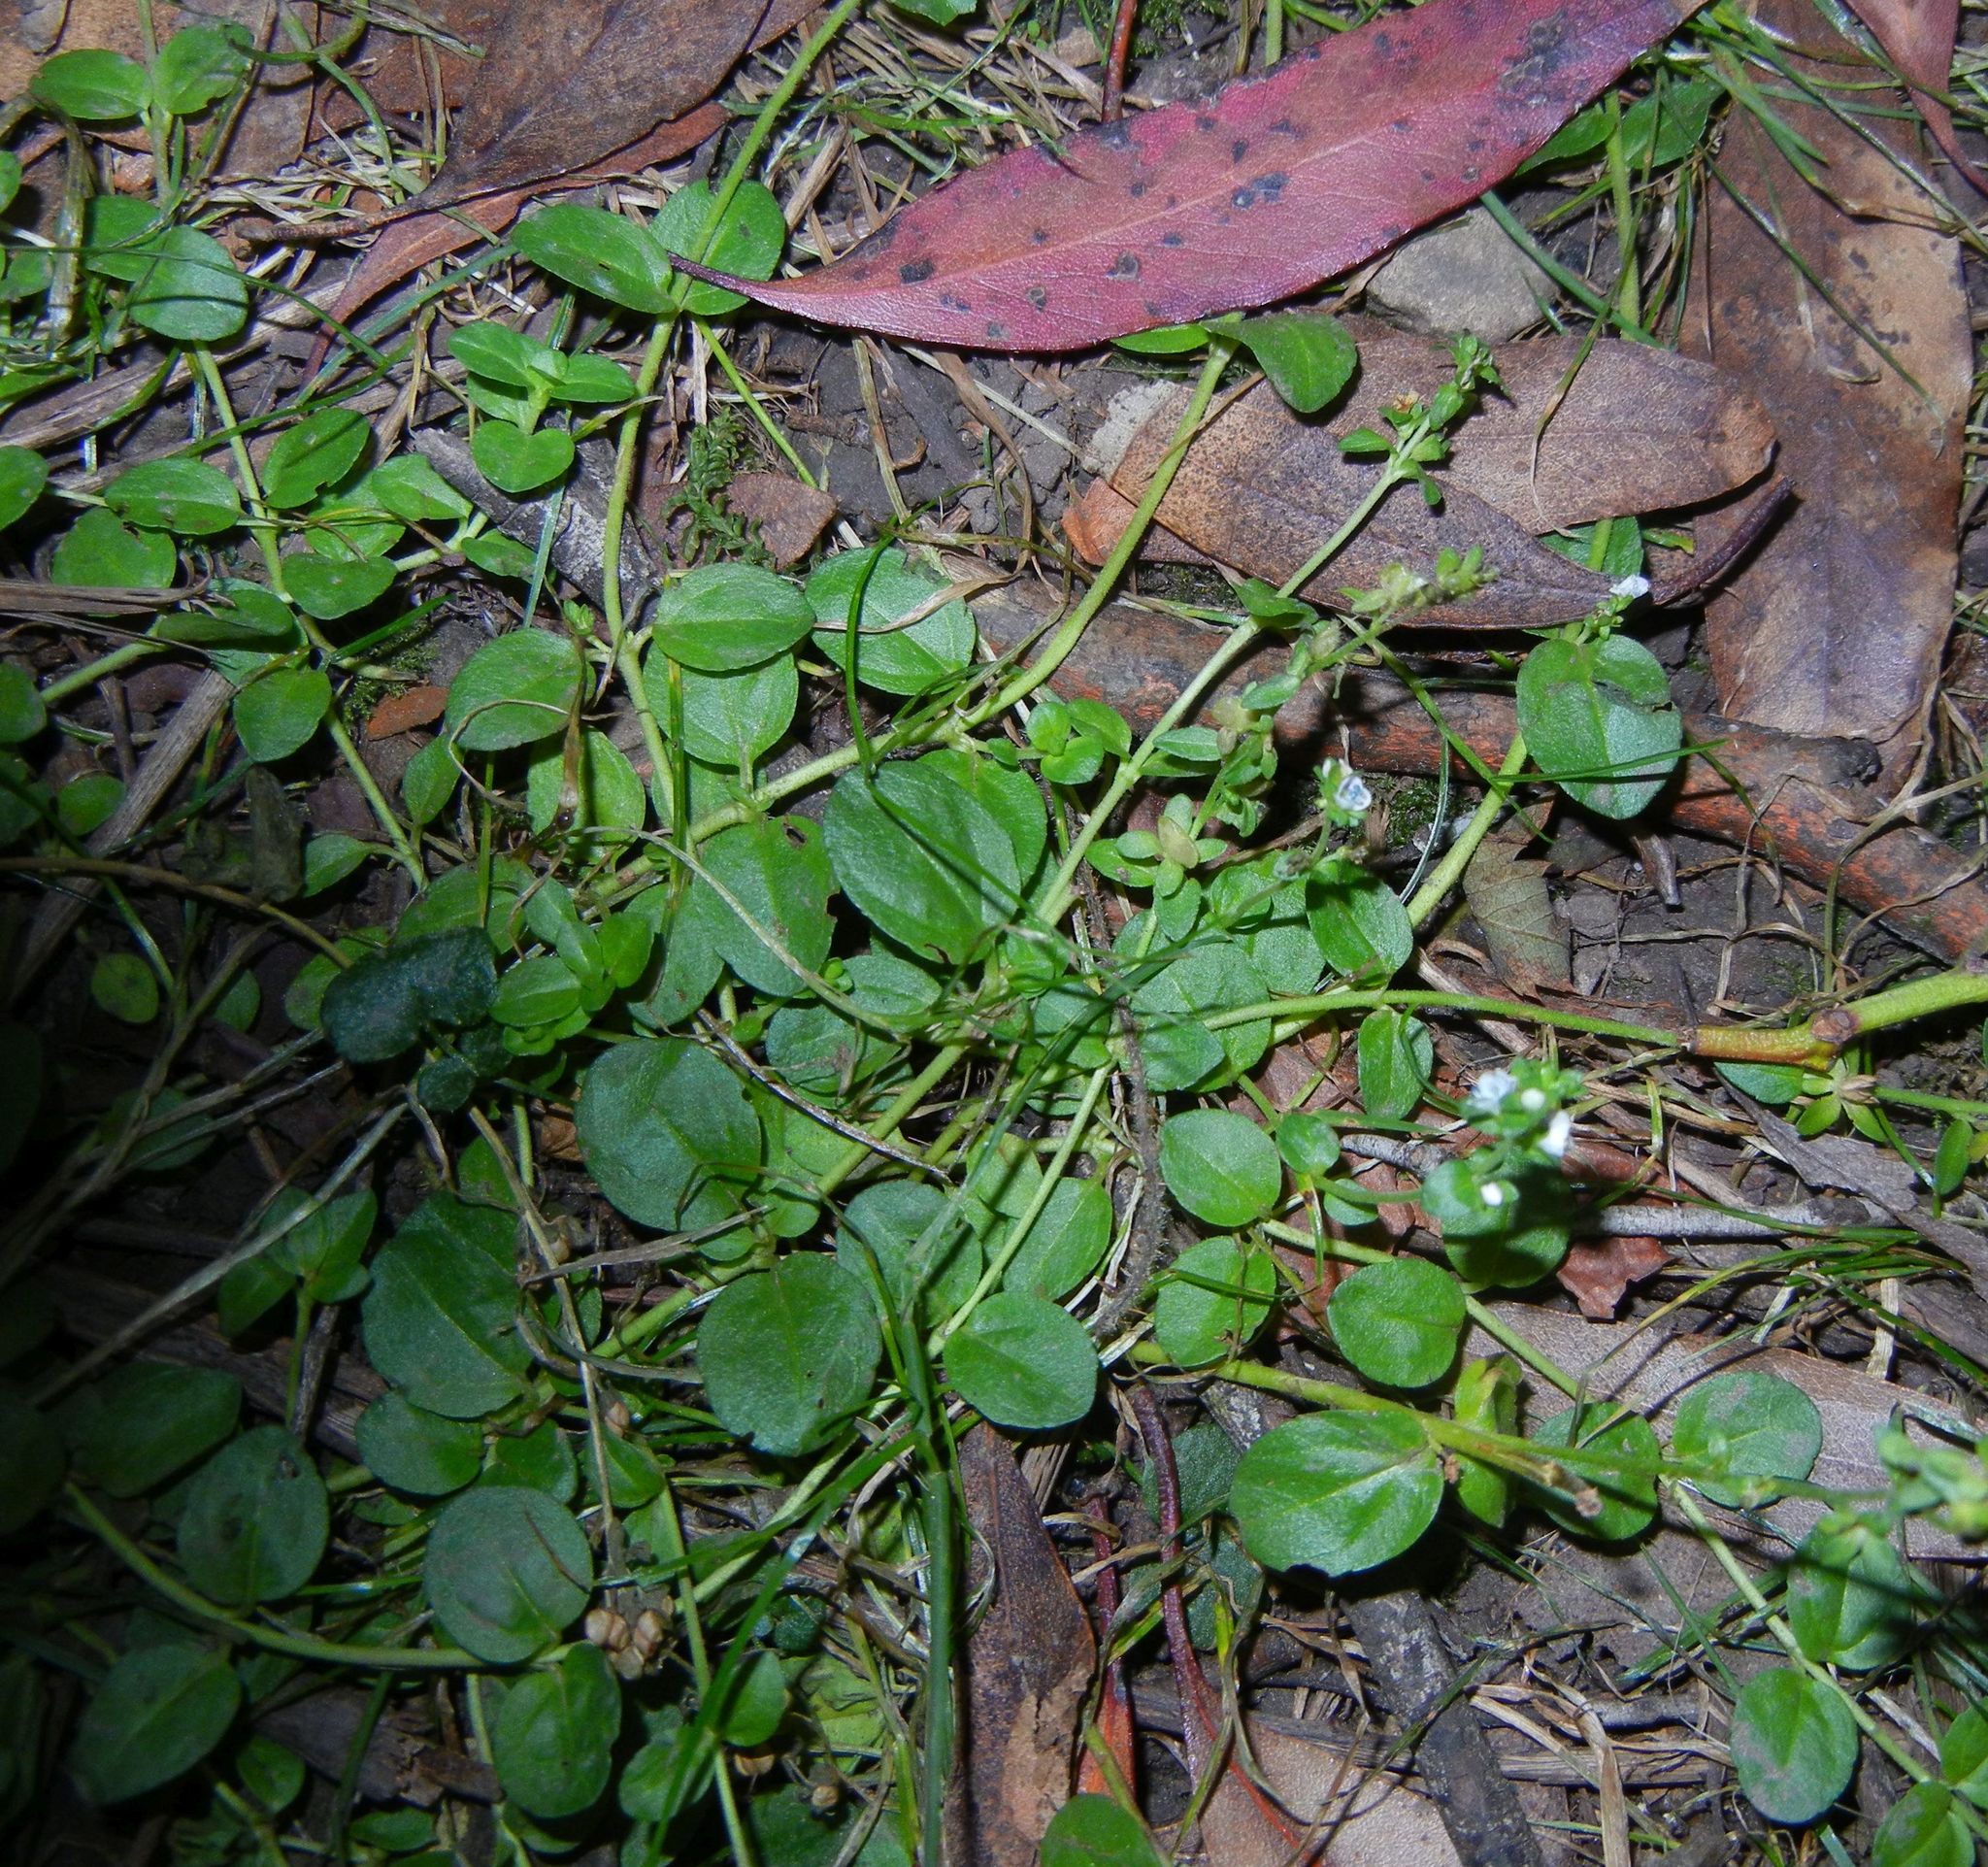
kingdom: Plantae
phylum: Tracheophyta
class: Magnoliopsida
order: Lamiales
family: Plantaginaceae
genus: Veronica
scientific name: Veronica serpyllifolia
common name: Thyme-leaved speedwell
